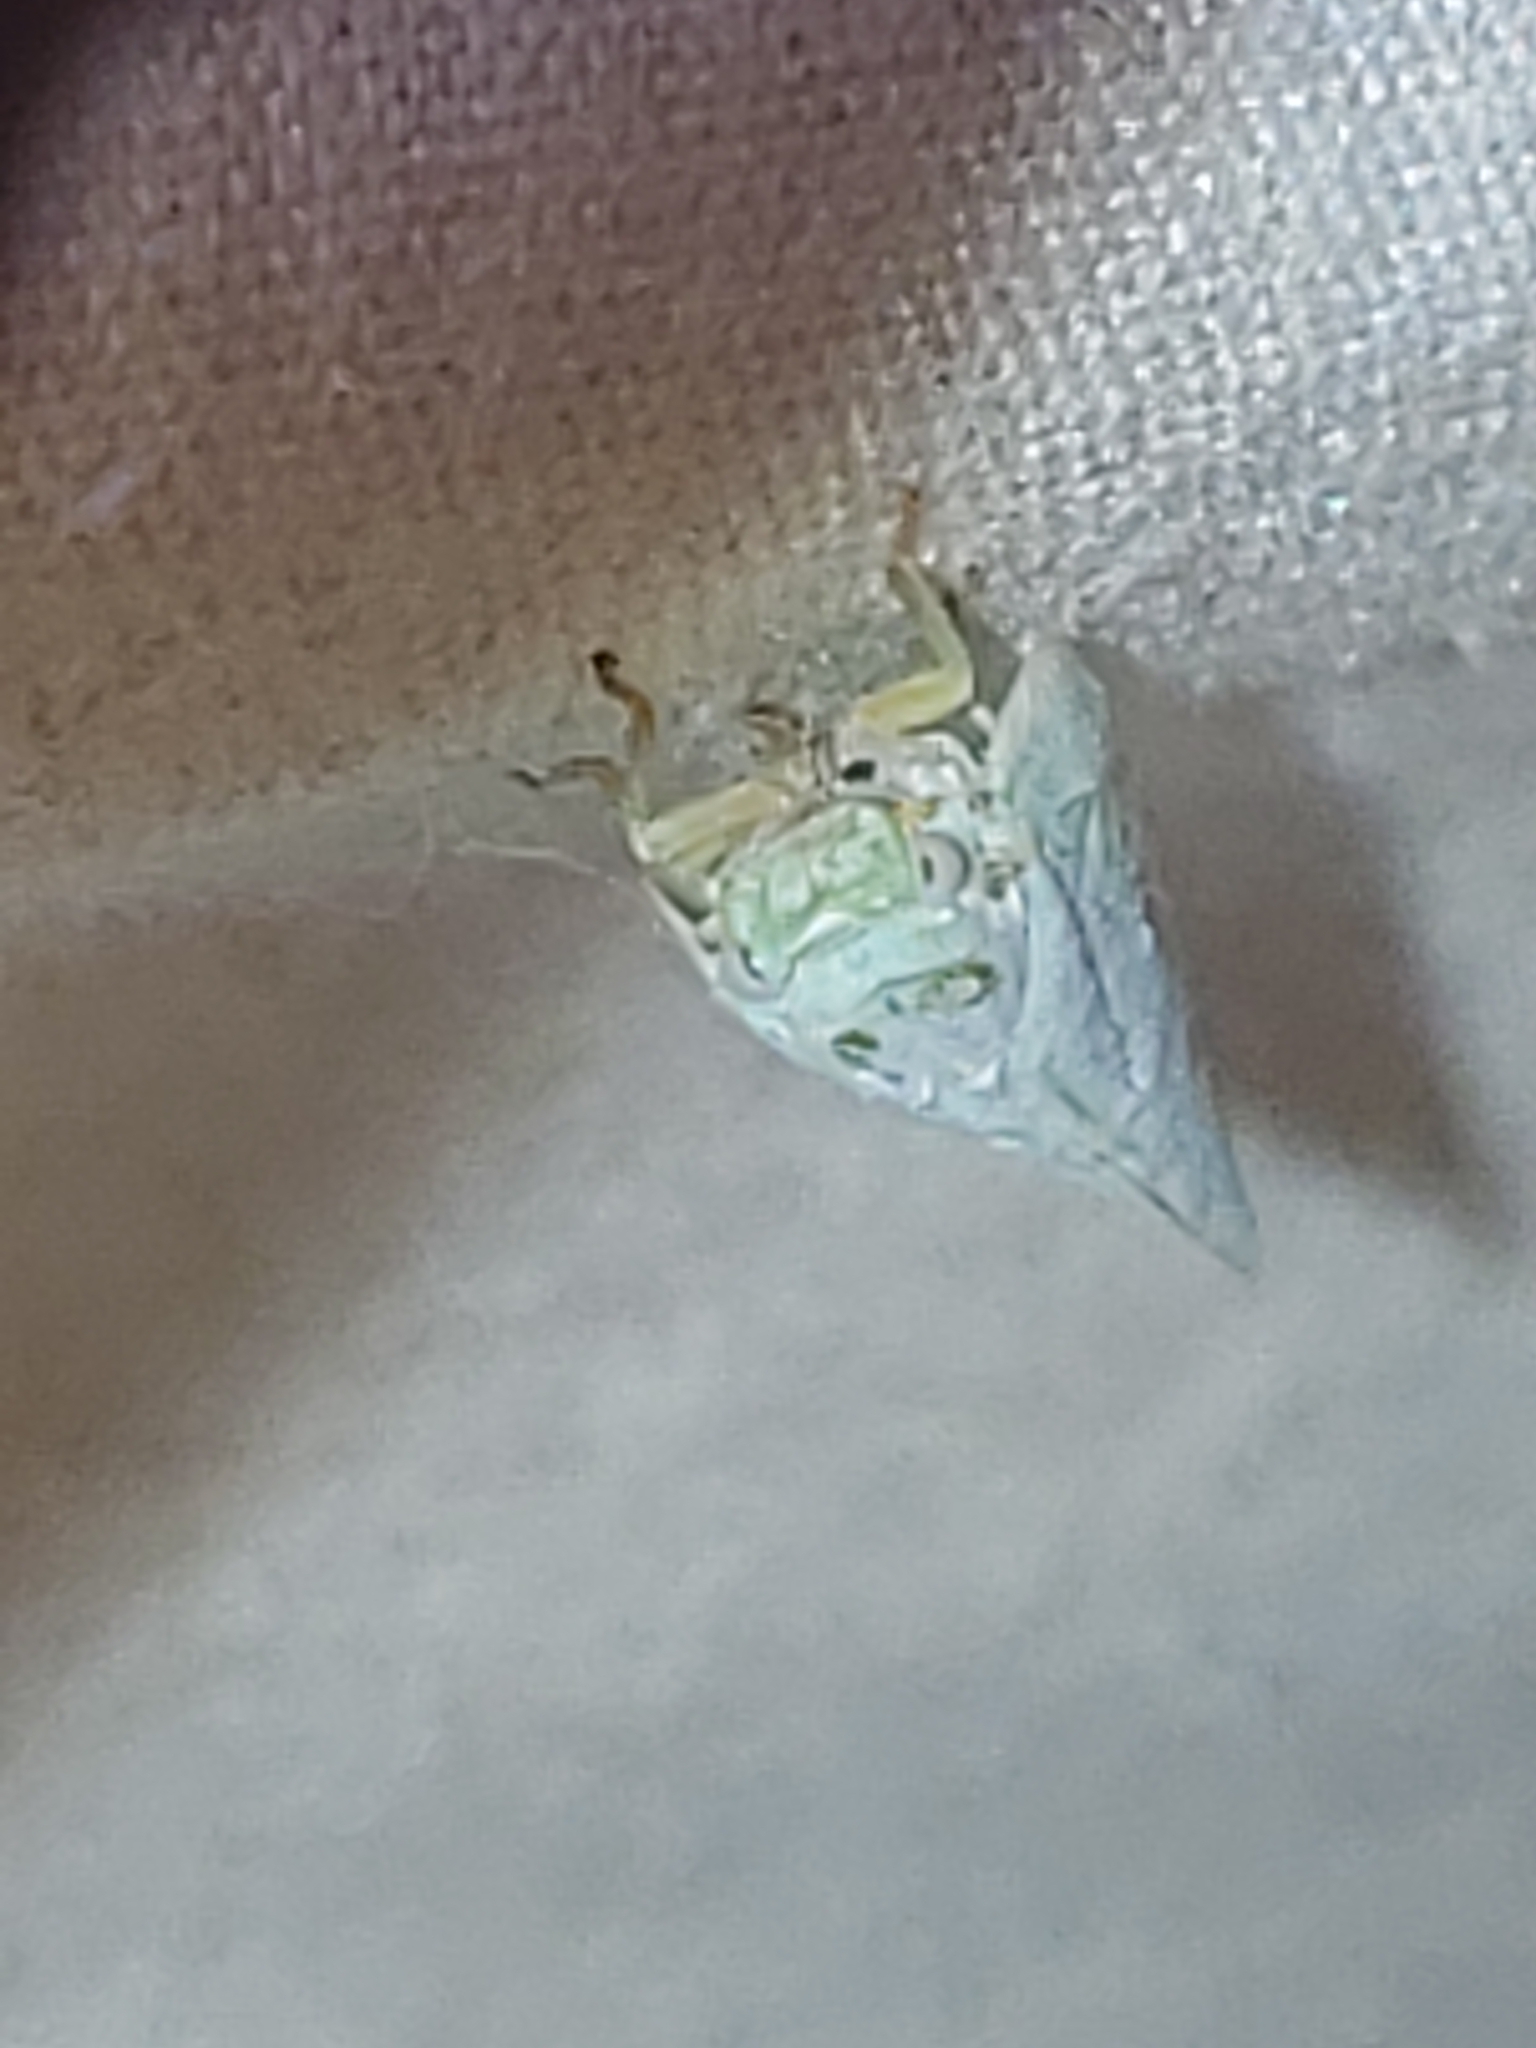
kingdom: Animalia
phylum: Arthropoda
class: Insecta
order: Hemiptera
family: Flatidae
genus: Flatormenis
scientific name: Flatormenis proxima
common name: Northern flatid planthopper
